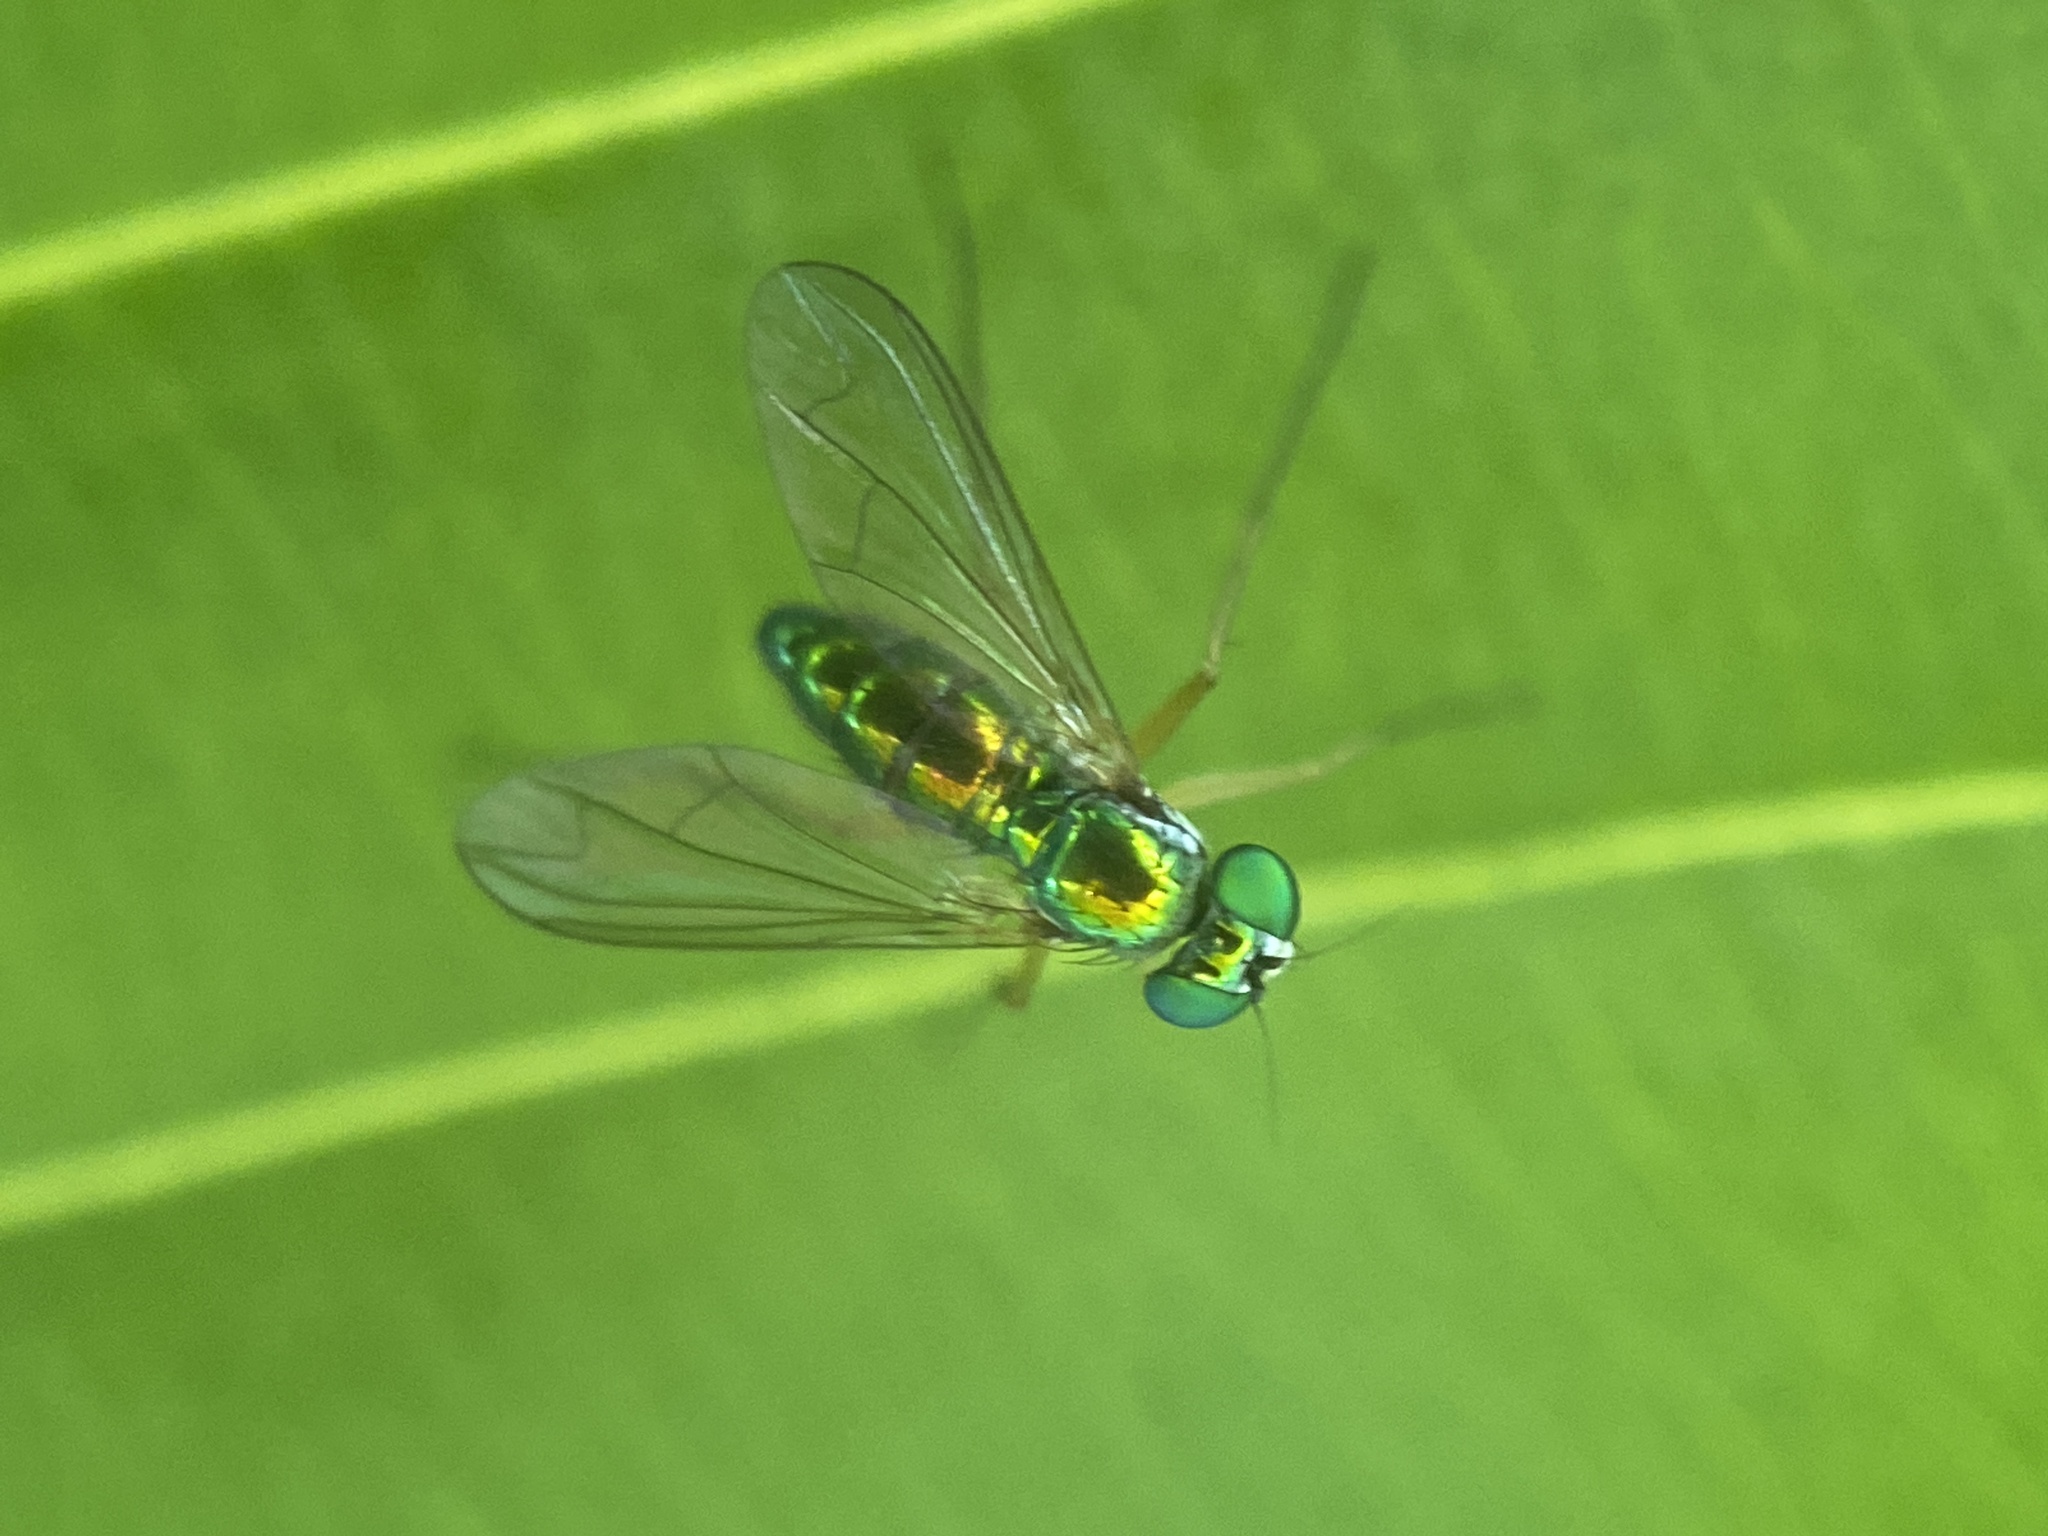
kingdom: Animalia
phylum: Arthropoda
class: Insecta
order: Diptera
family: Dolichopodidae
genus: Amblypsilopus
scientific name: Amblypsilopus scintillans
